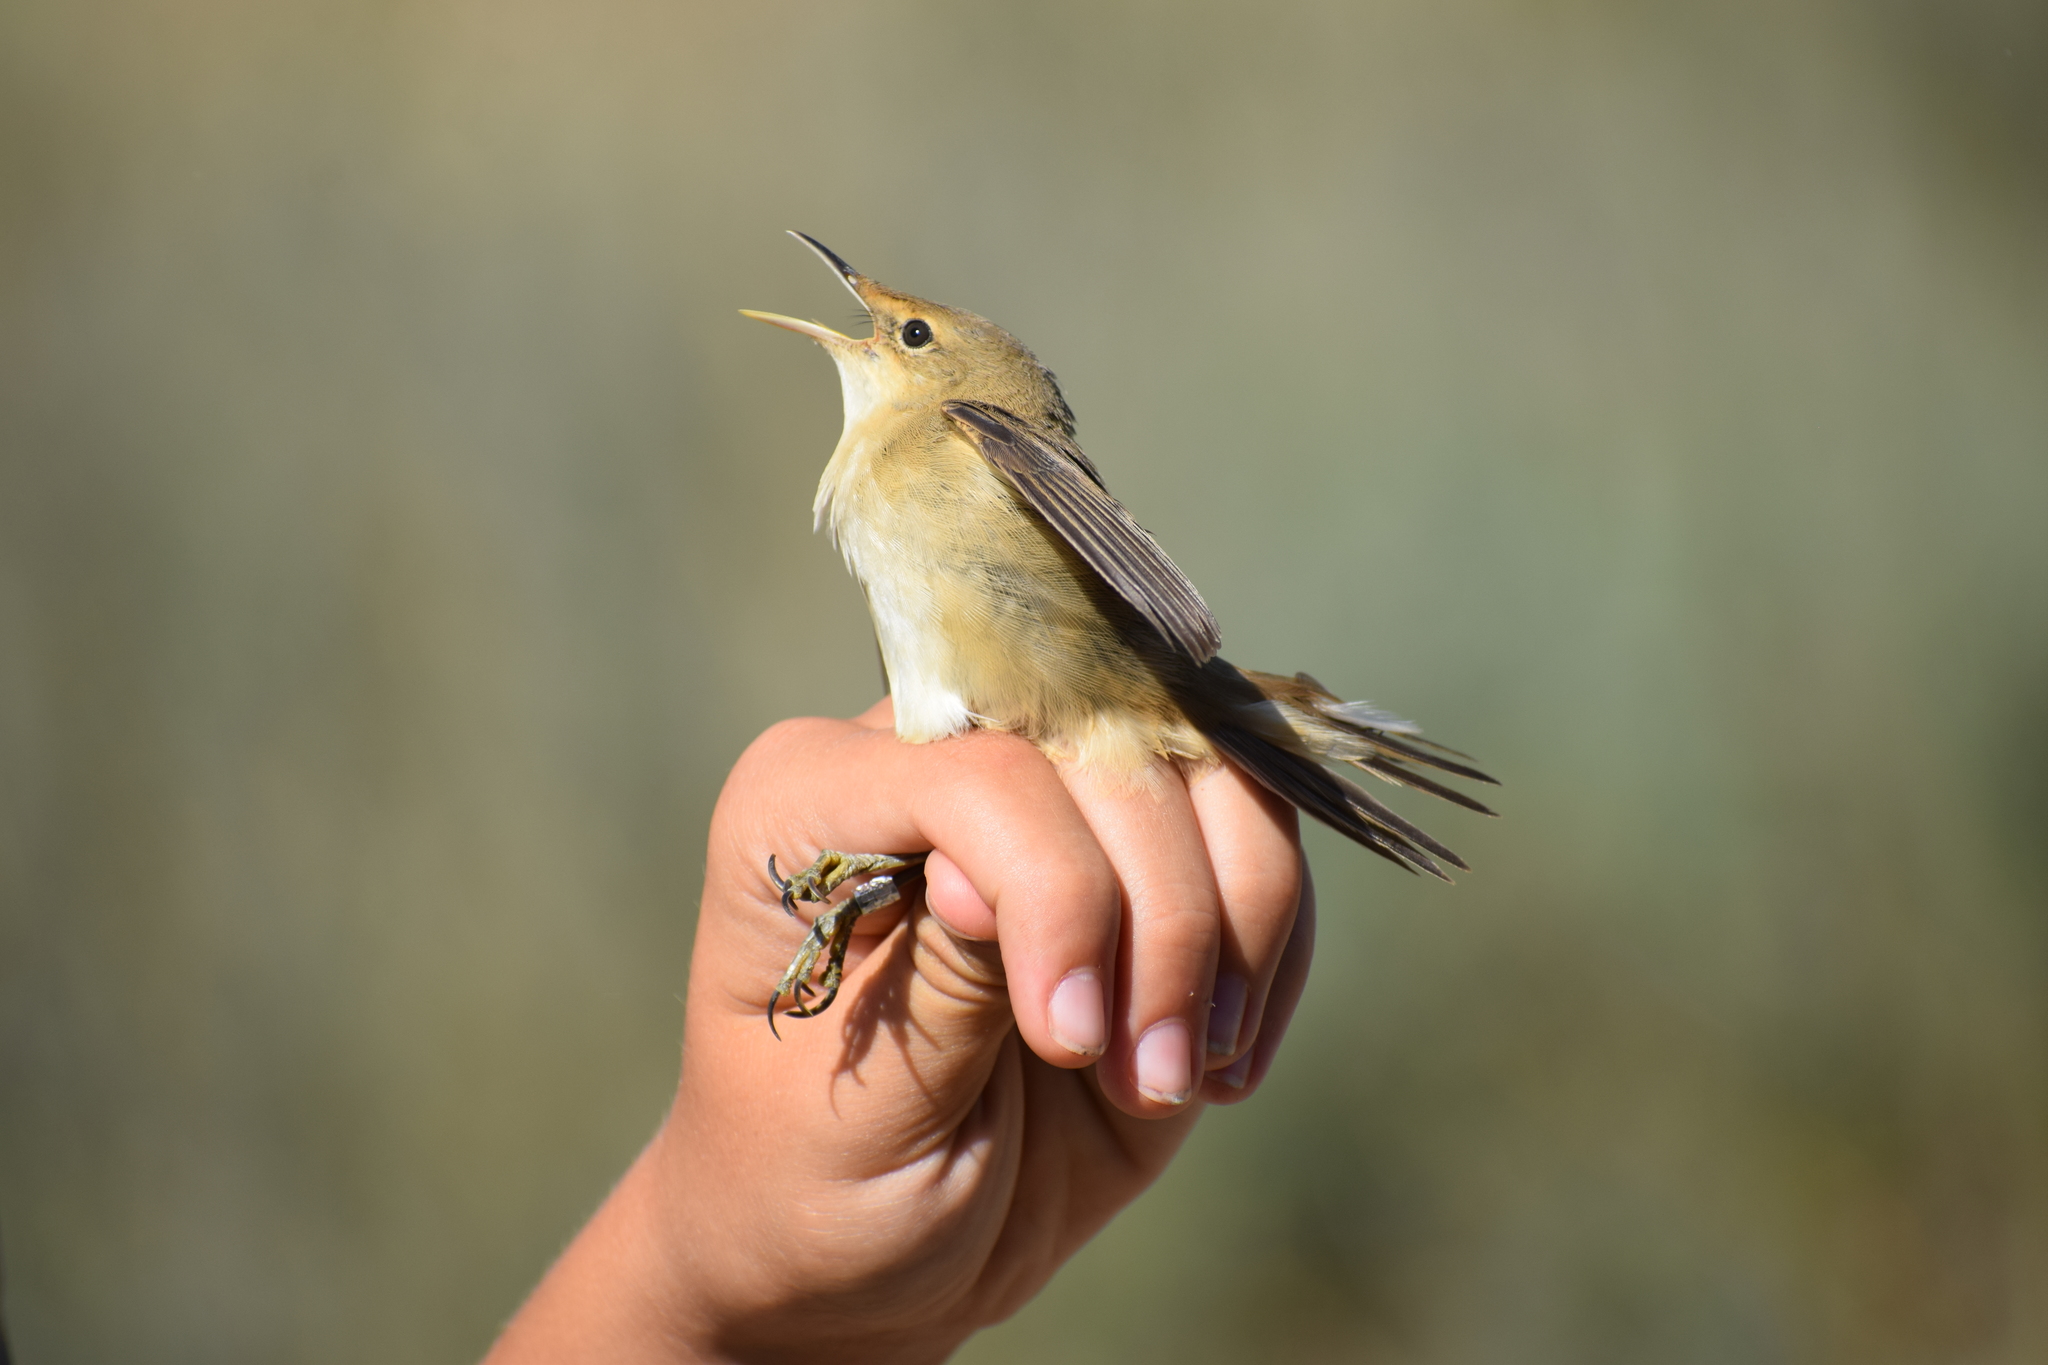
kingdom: Animalia
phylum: Chordata
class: Aves
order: Passeriformes
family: Acrocephalidae
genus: Acrocephalus
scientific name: Acrocephalus scirpaceus
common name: Eurasian reed warbler
